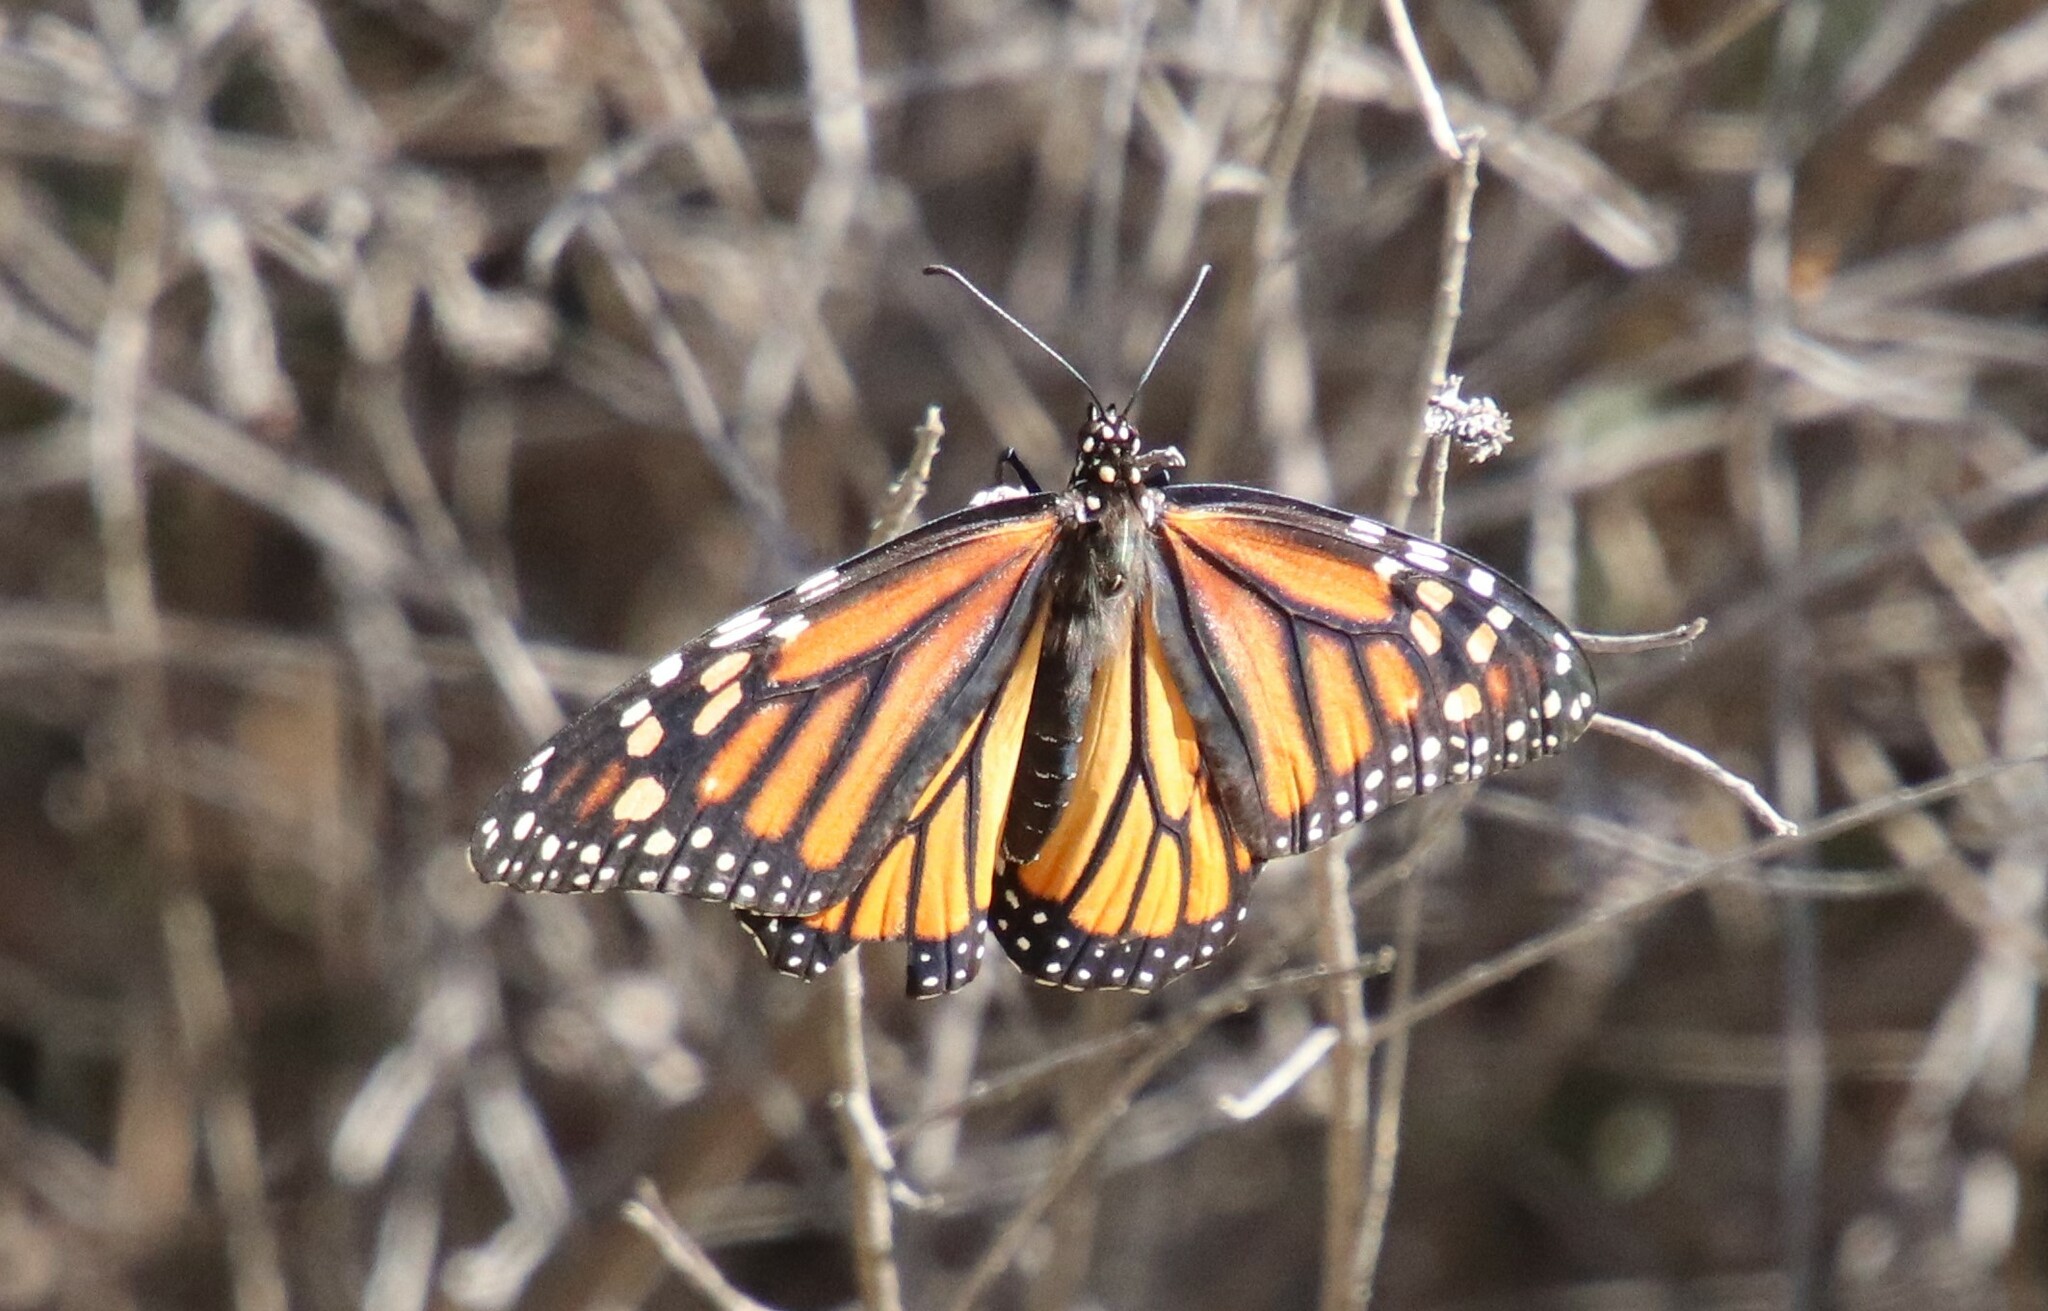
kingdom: Animalia
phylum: Arthropoda
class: Insecta
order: Lepidoptera
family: Nymphalidae
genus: Danaus
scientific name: Danaus plexippus
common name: Monarch
